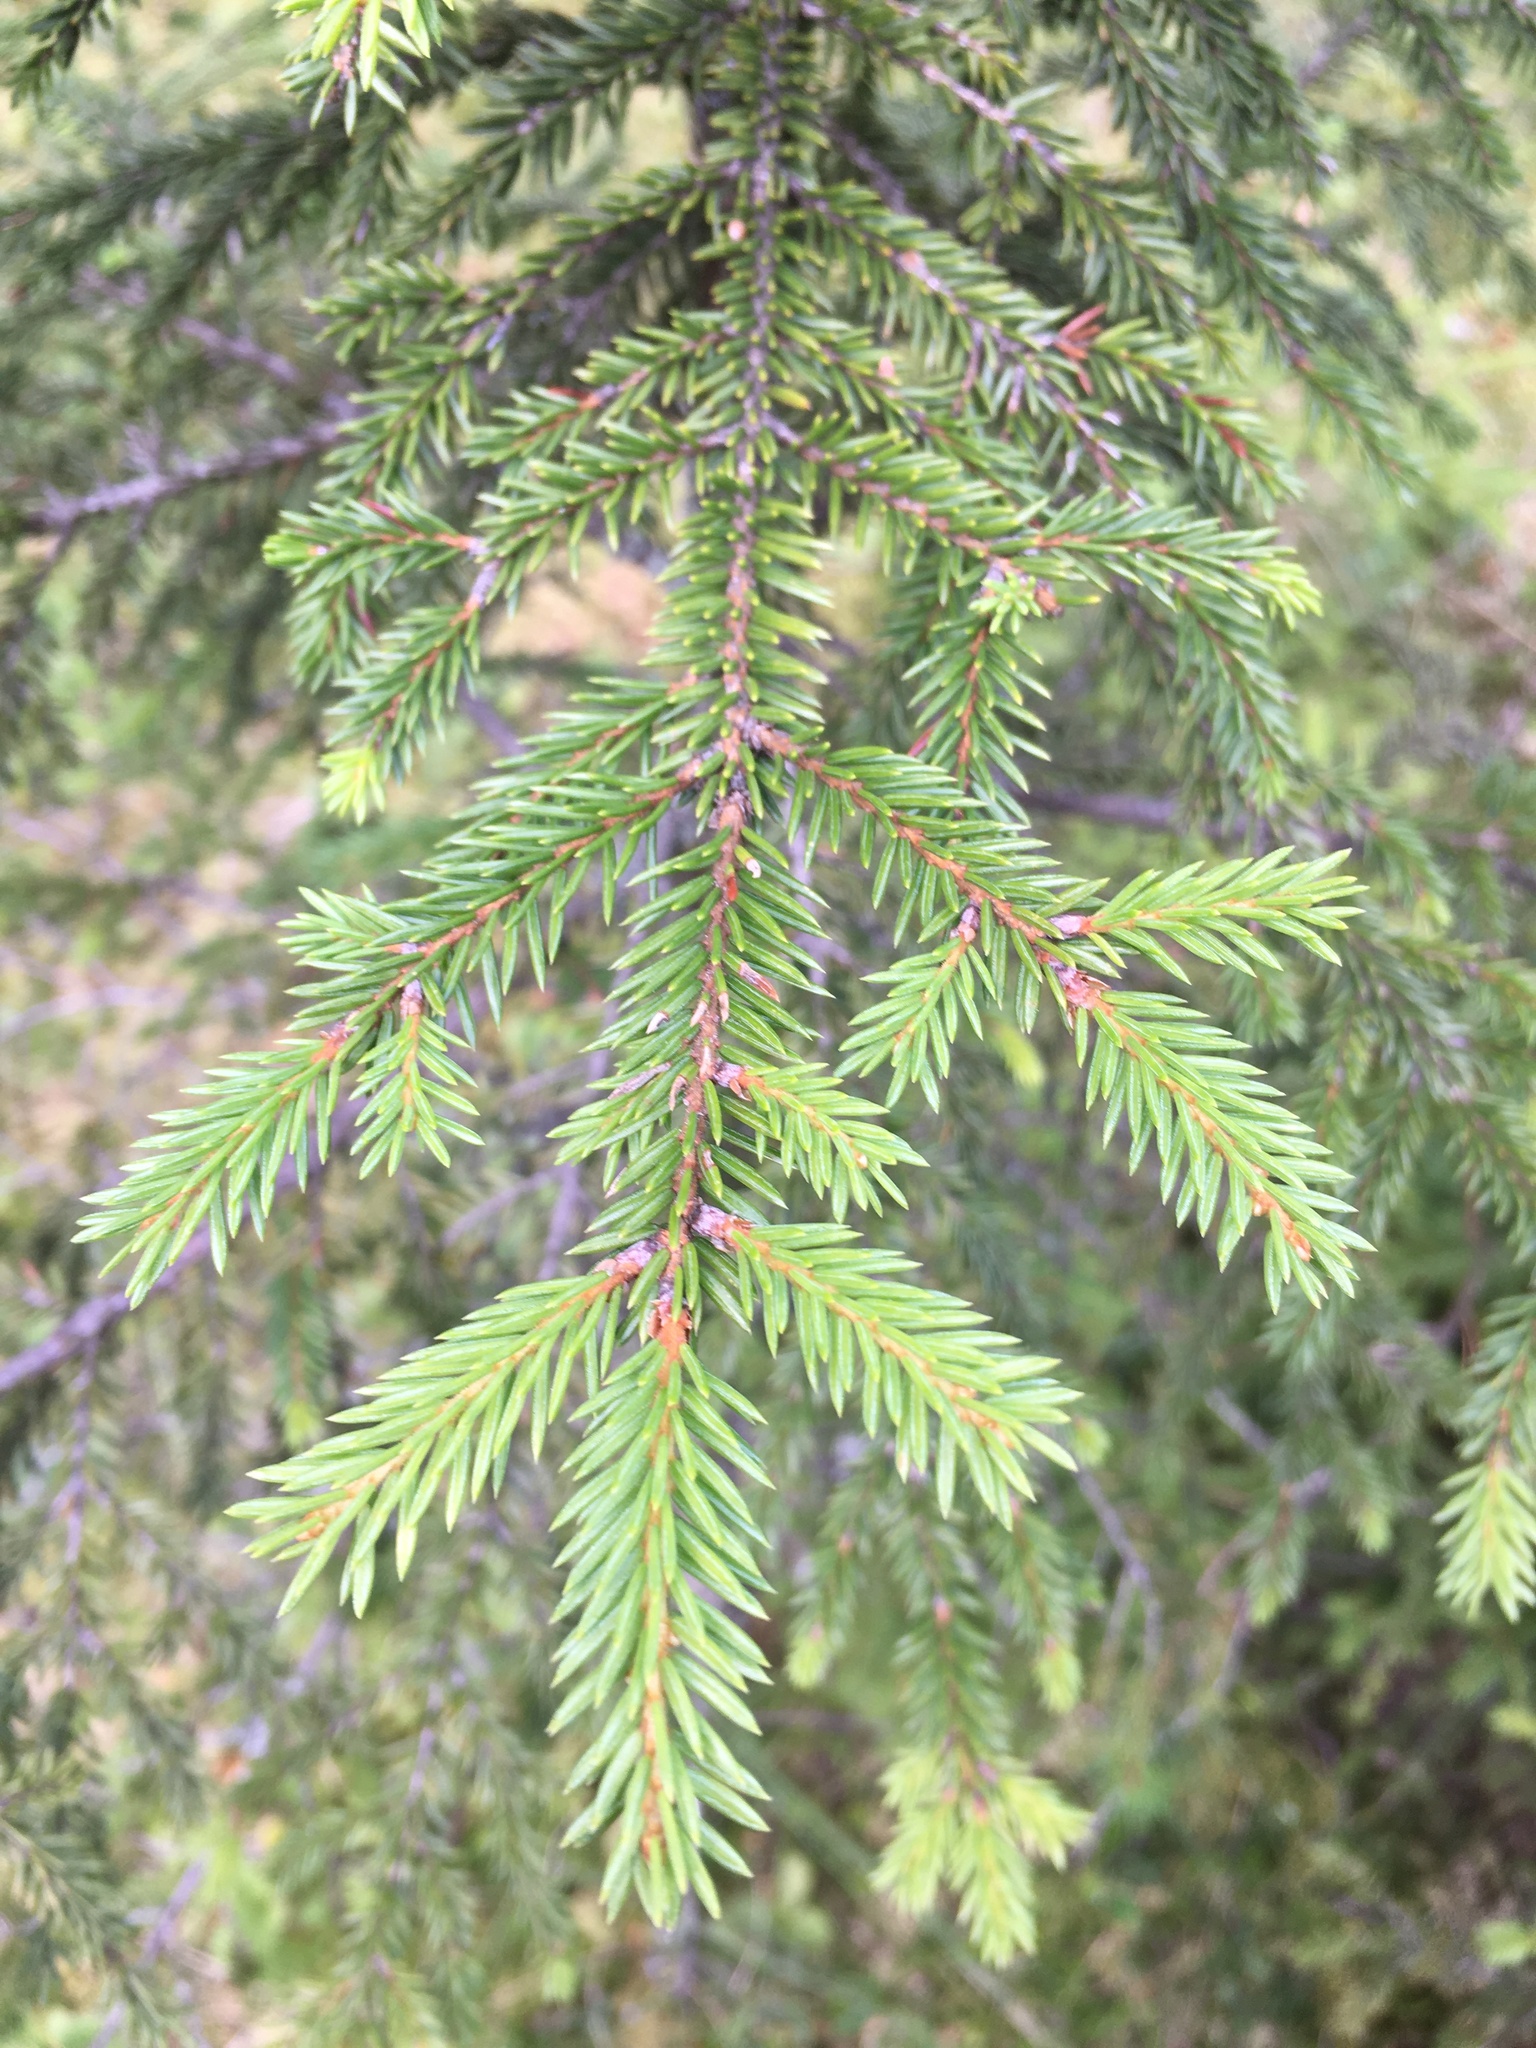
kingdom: Plantae
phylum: Tracheophyta
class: Pinopsida
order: Pinales
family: Pinaceae
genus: Picea
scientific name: Picea abies
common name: Norway spruce
